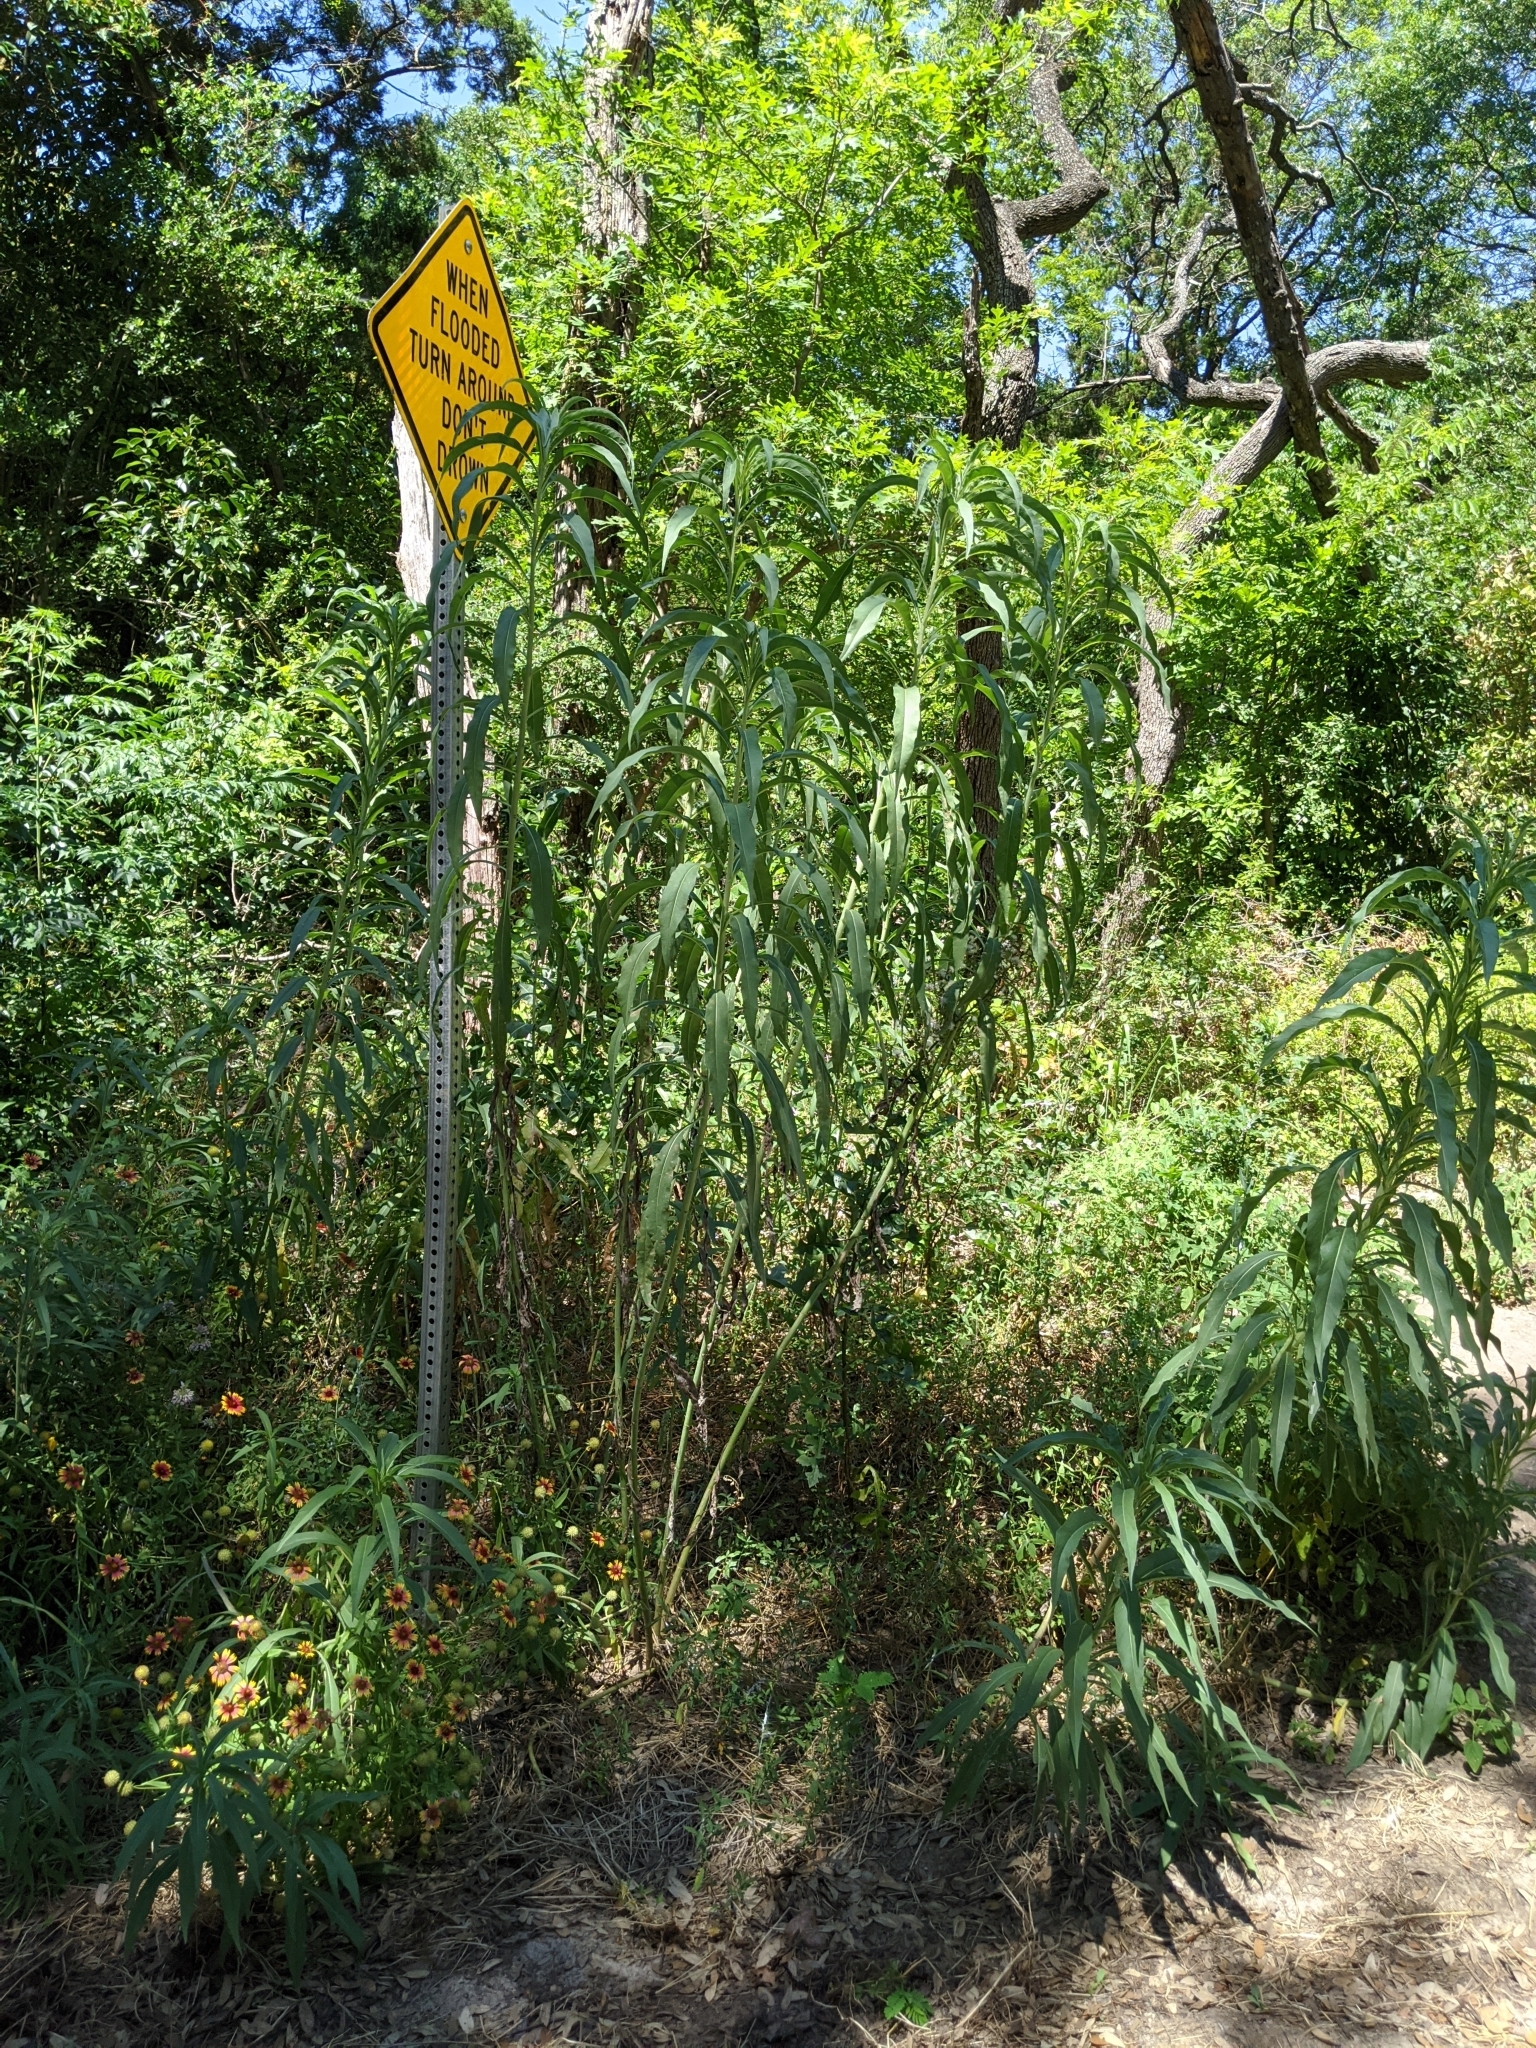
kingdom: Plantae
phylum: Tracheophyta
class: Magnoliopsida
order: Asterales
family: Asteraceae
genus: Helianthus
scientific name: Helianthus maximiliani
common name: Maximilian's sunflower
